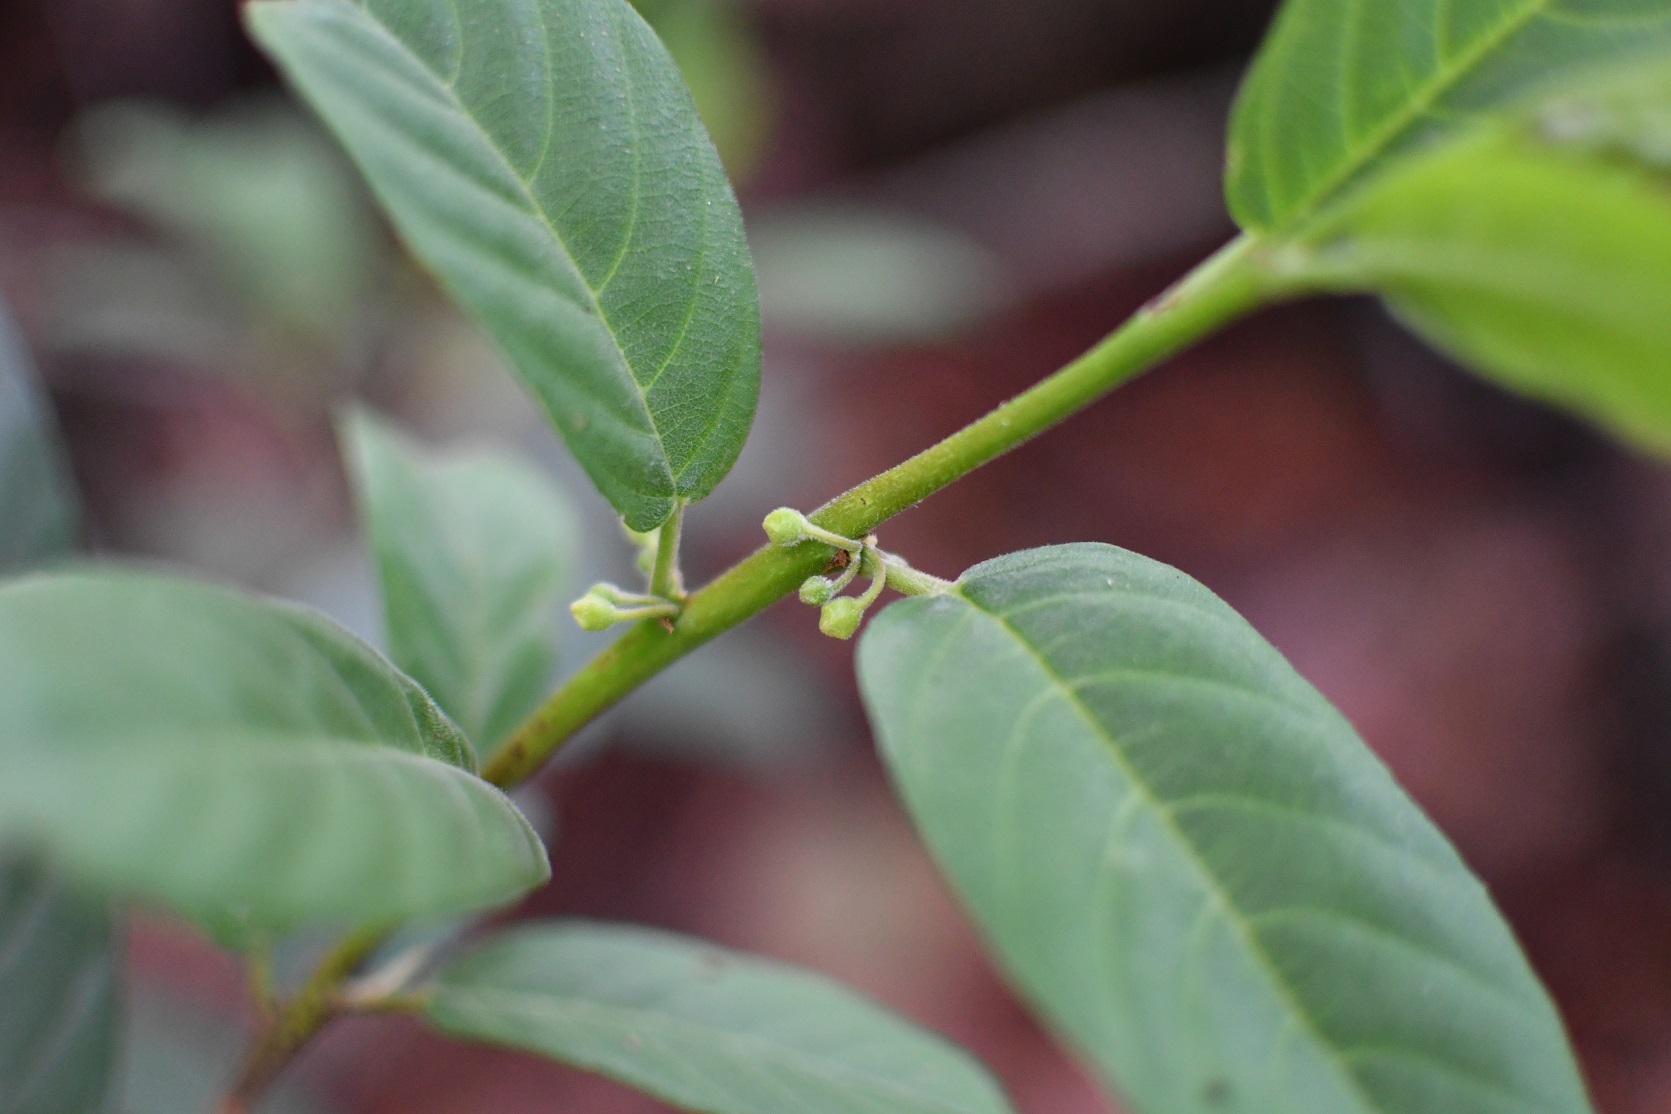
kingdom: Plantae
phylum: Tracheophyta
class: Magnoliopsida
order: Rosales
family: Rhamnaceae
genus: Frangula
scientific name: Frangula mucronata
